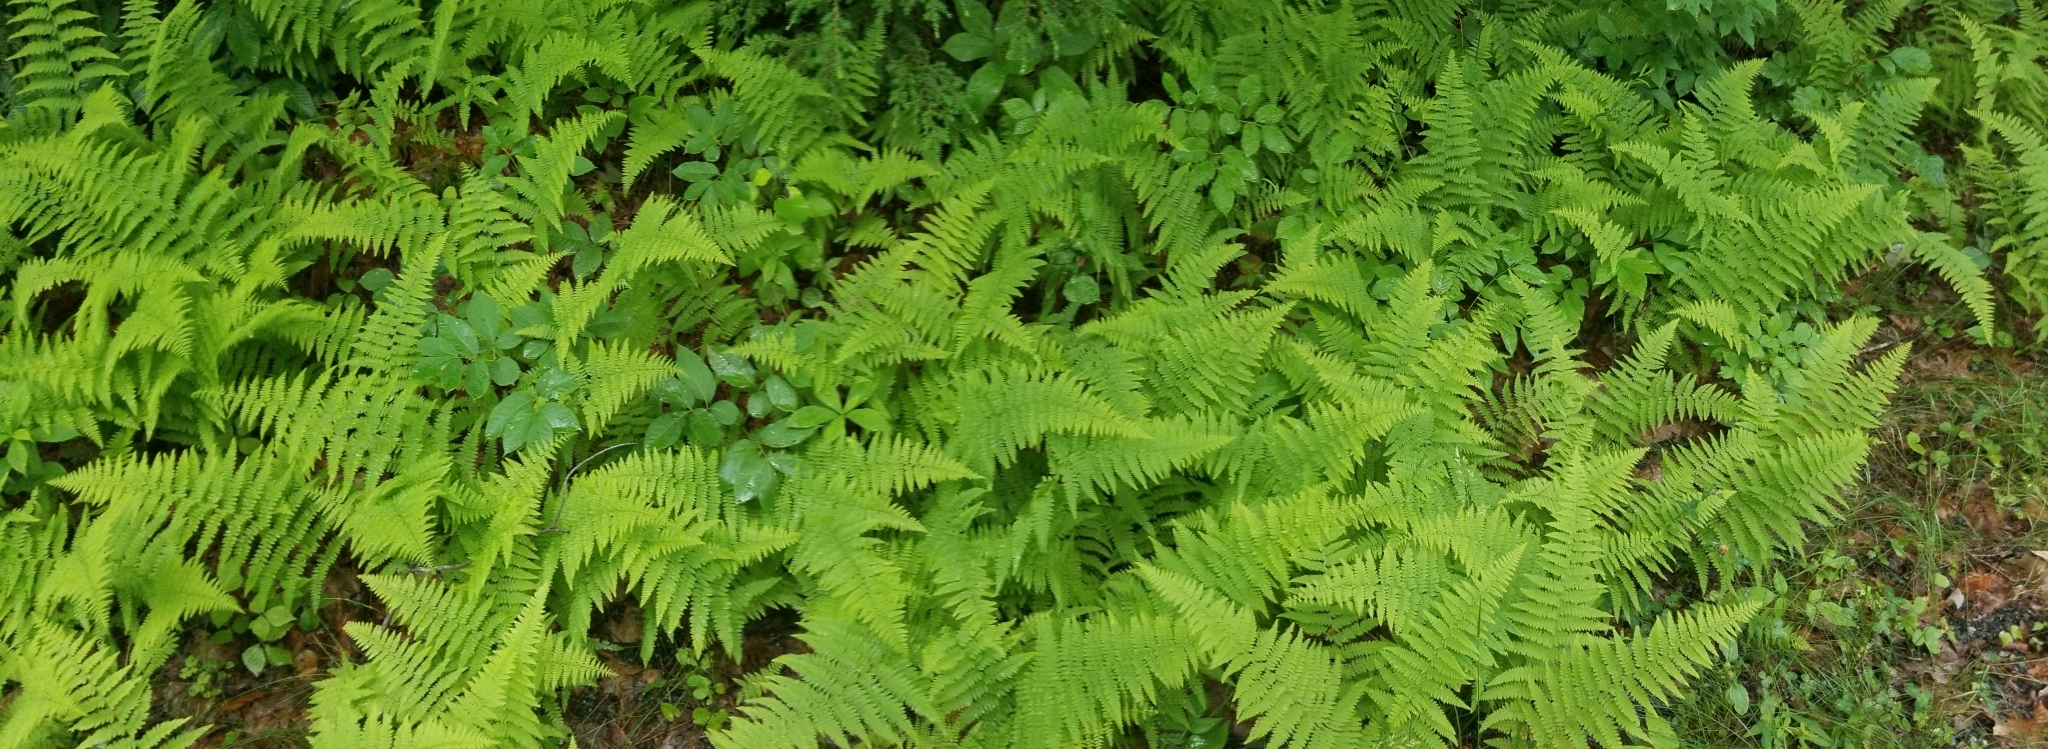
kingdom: Plantae
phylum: Tracheophyta
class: Polypodiopsida
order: Polypodiales
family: Dennstaedtiaceae
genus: Sitobolium
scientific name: Sitobolium punctilobum
